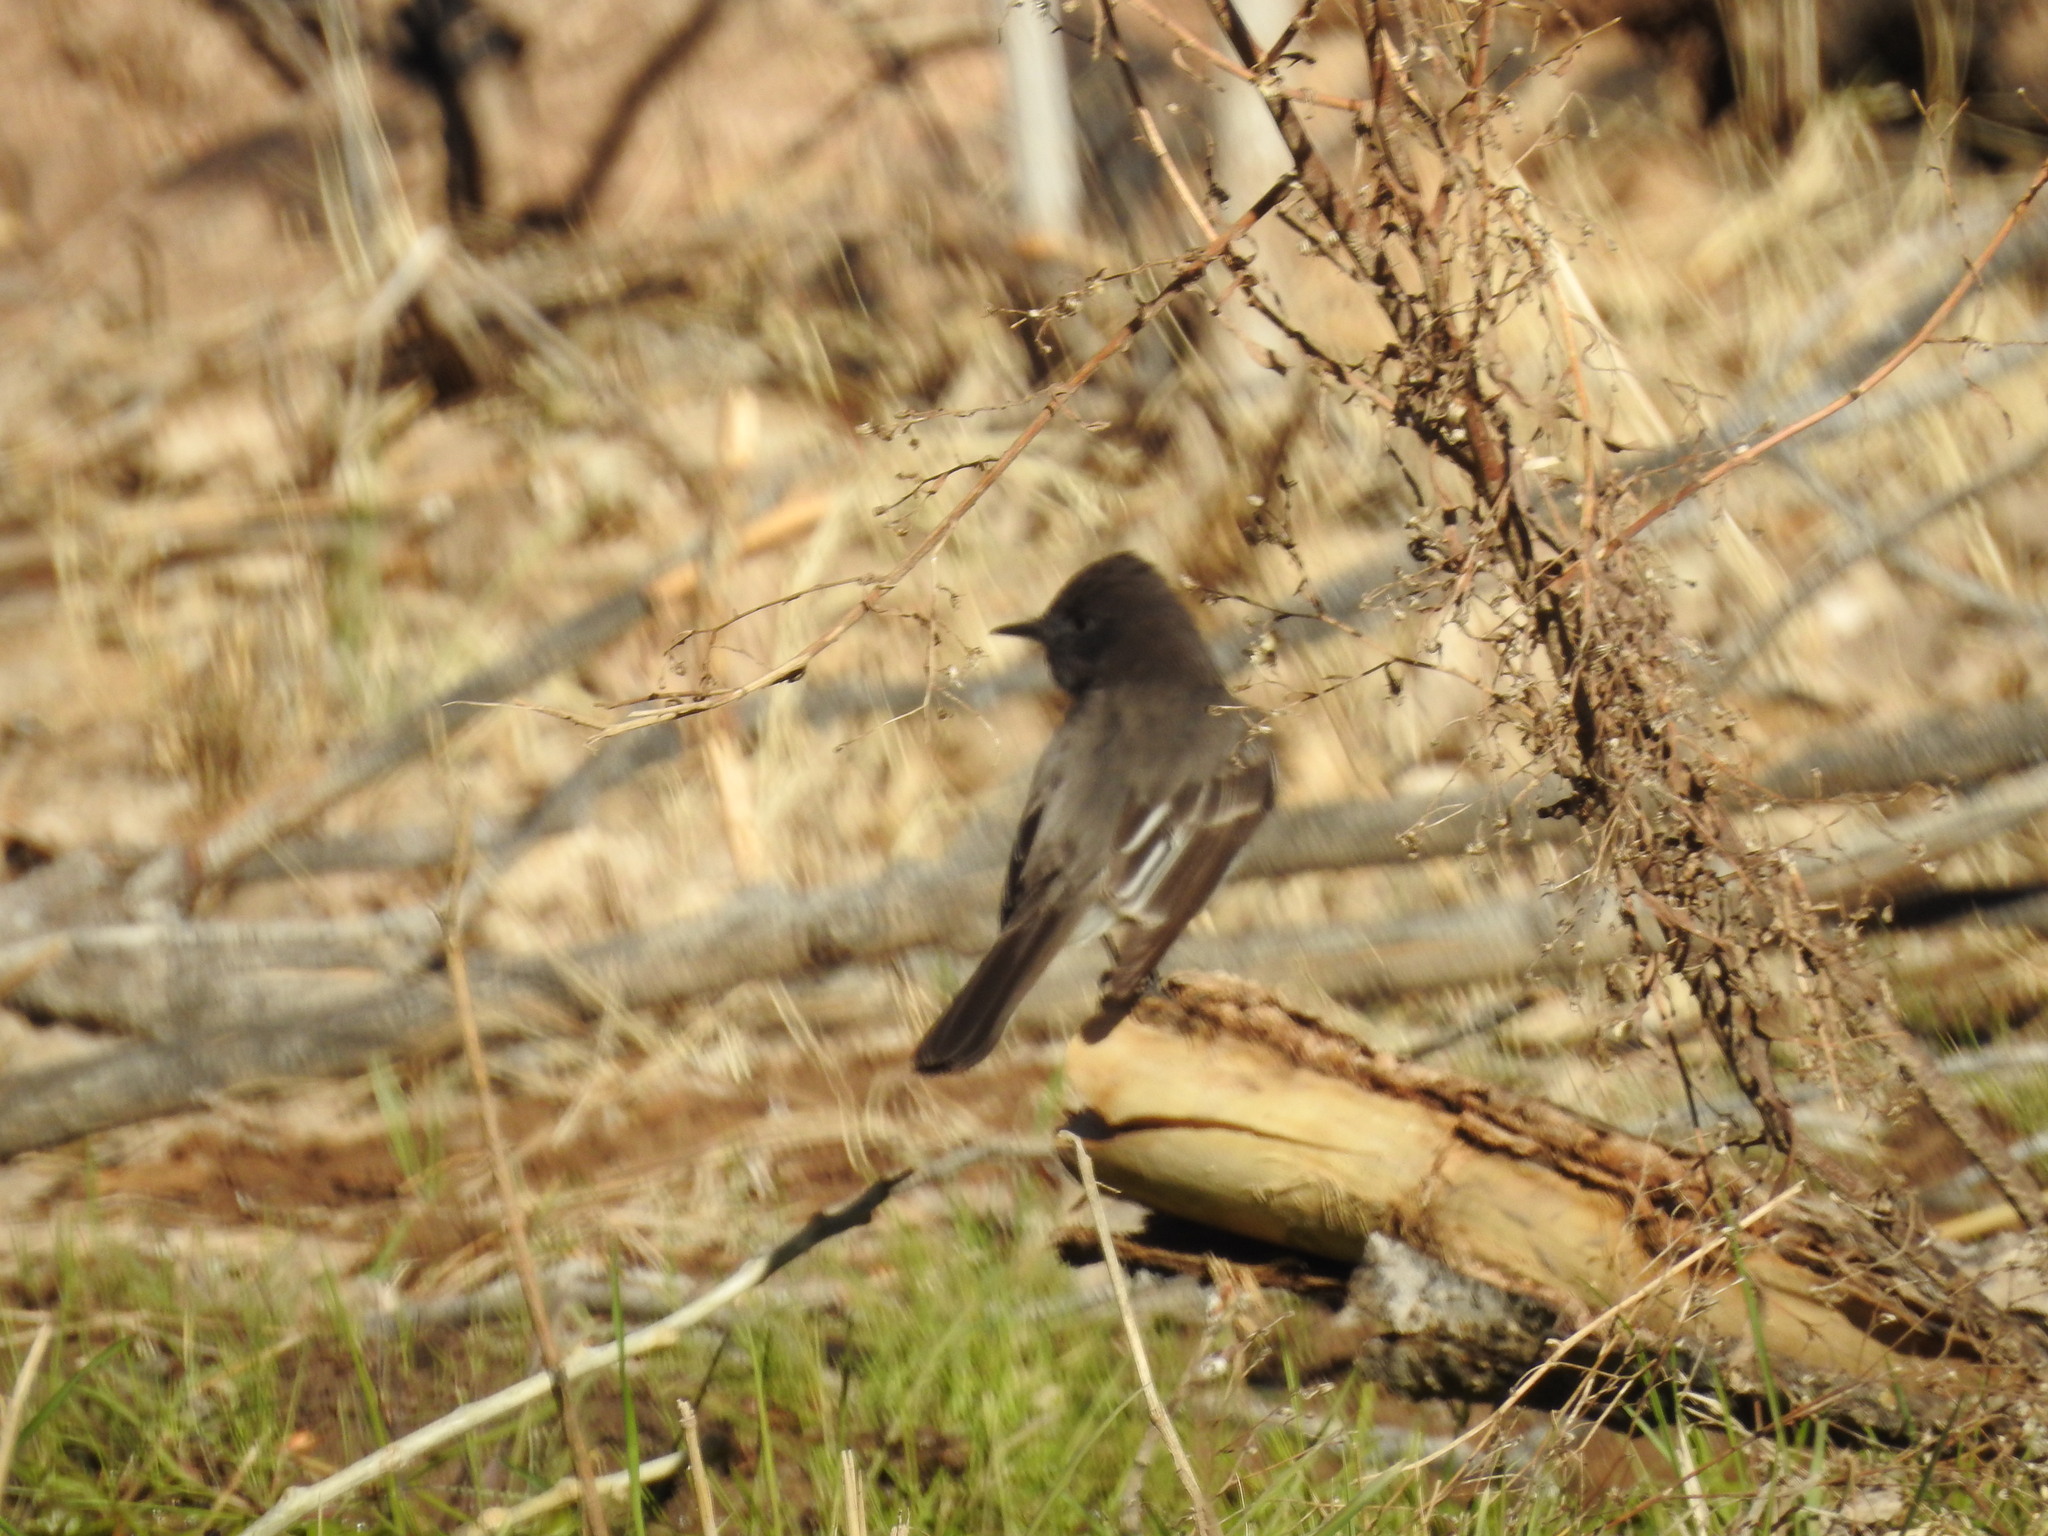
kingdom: Animalia
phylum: Chordata
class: Aves
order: Passeriformes
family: Tyrannidae
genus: Sayornis
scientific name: Sayornis nigricans
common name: Black phoebe
